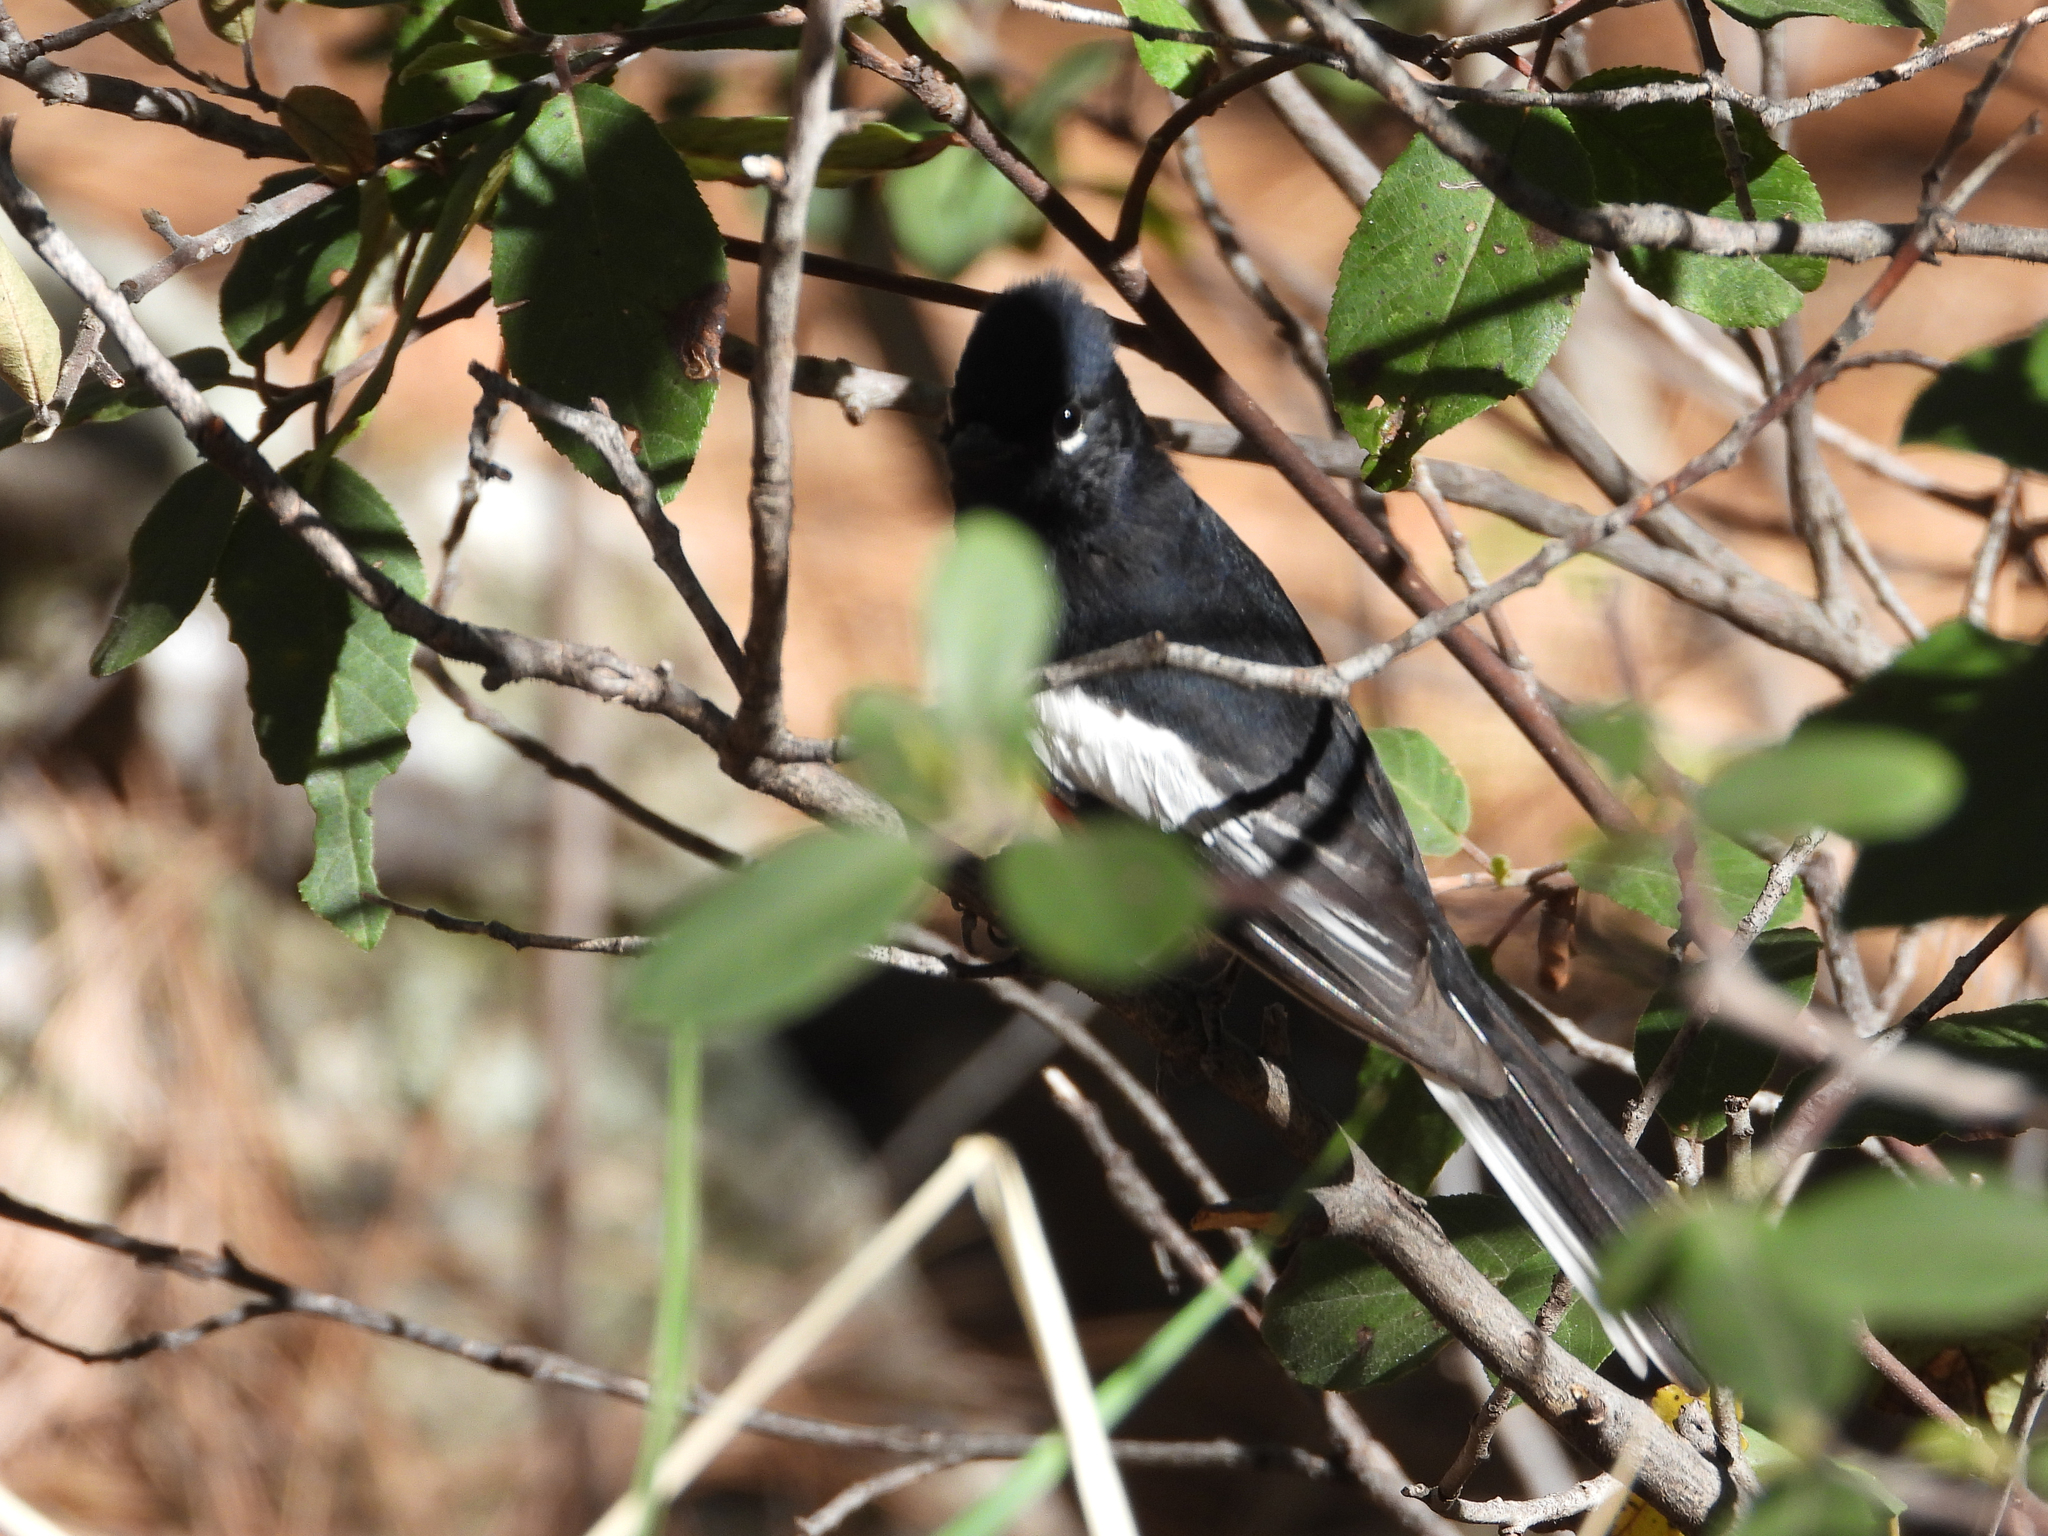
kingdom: Animalia
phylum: Chordata
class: Aves
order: Passeriformes
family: Parulidae
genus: Myioborus
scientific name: Myioborus pictus
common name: Painted whitestart
